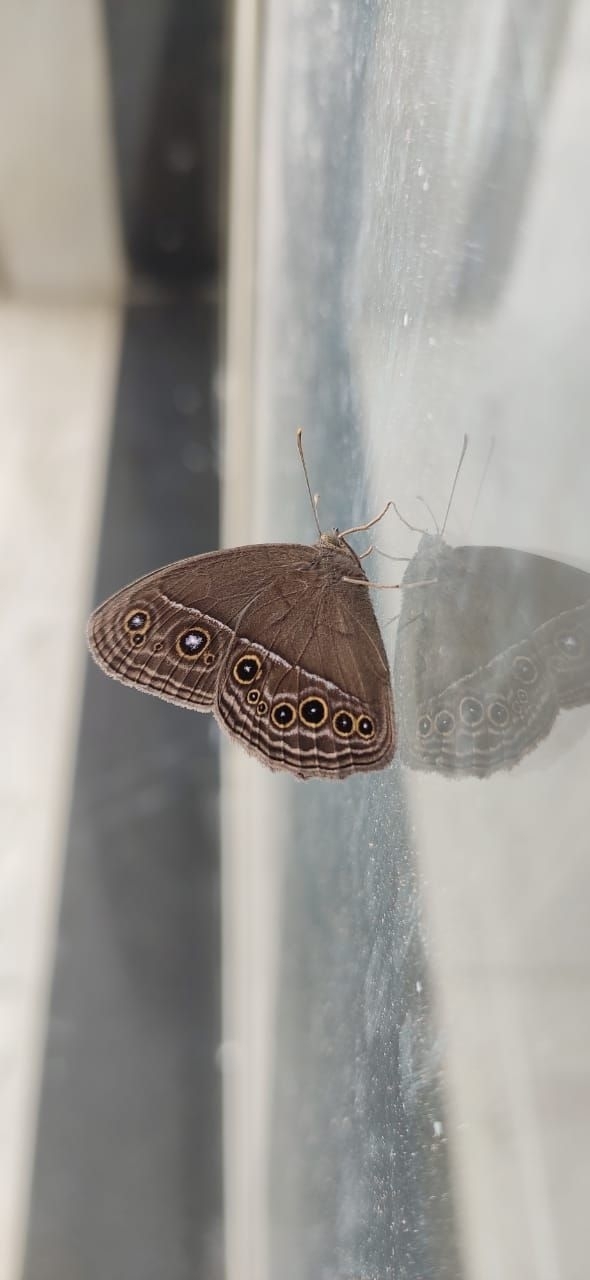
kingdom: Animalia
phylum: Arthropoda
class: Insecta
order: Lepidoptera
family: Nymphalidae
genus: Mycalesis
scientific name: Mycalesis perseus
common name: Dingy bushbrown
